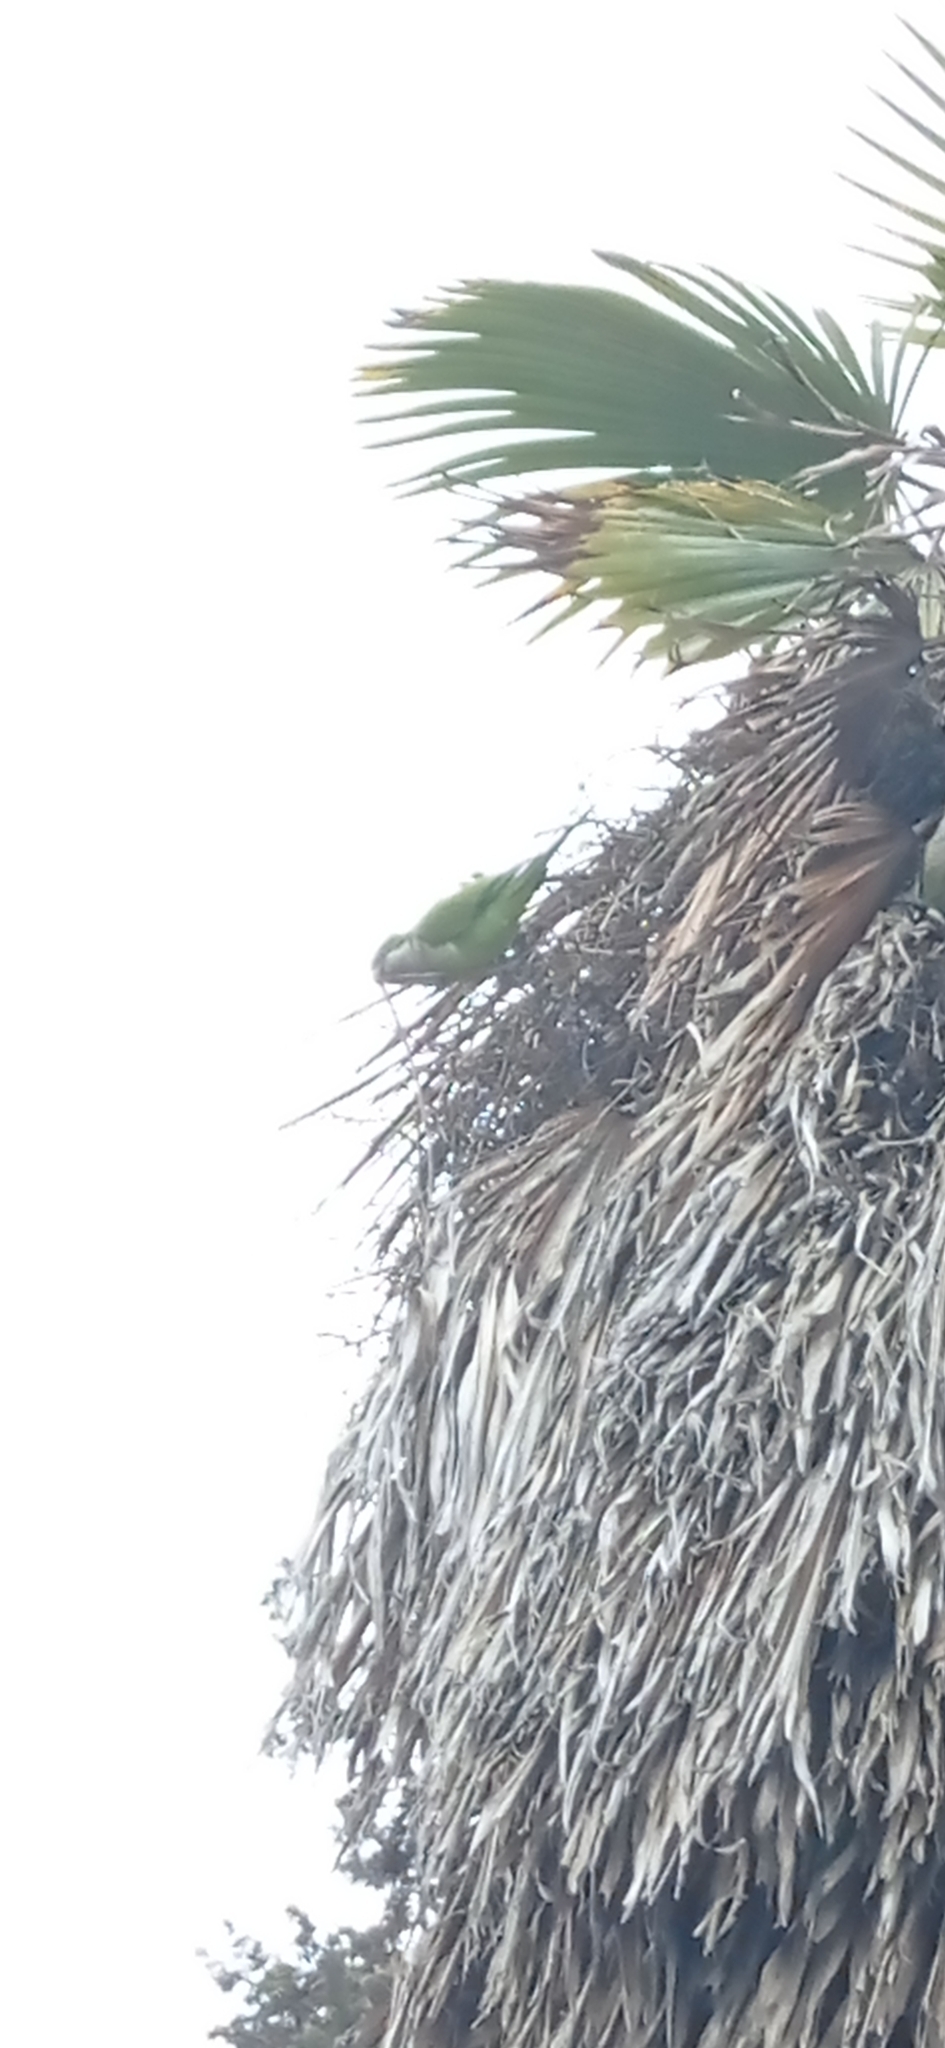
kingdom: Animalia
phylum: Chordata
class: Aves
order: Psittaciformes
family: Psittacidae
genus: Myiopsitta
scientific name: Myiopsitta monachus
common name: Monk parakeet
